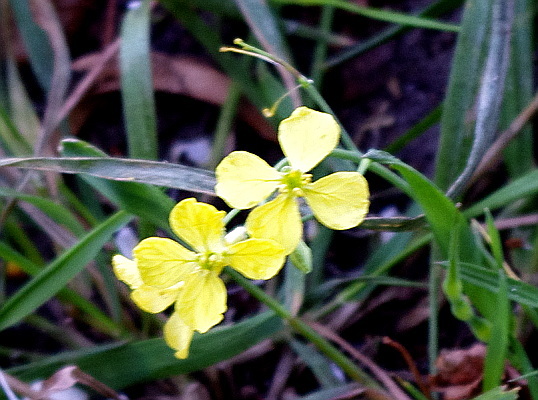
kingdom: Plantae
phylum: Tracheophyta
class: Magnoliopsida
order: Brassicales
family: Brassicaceae
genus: Raphanus
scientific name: Raphanus raphanistrum
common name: Wild radish
